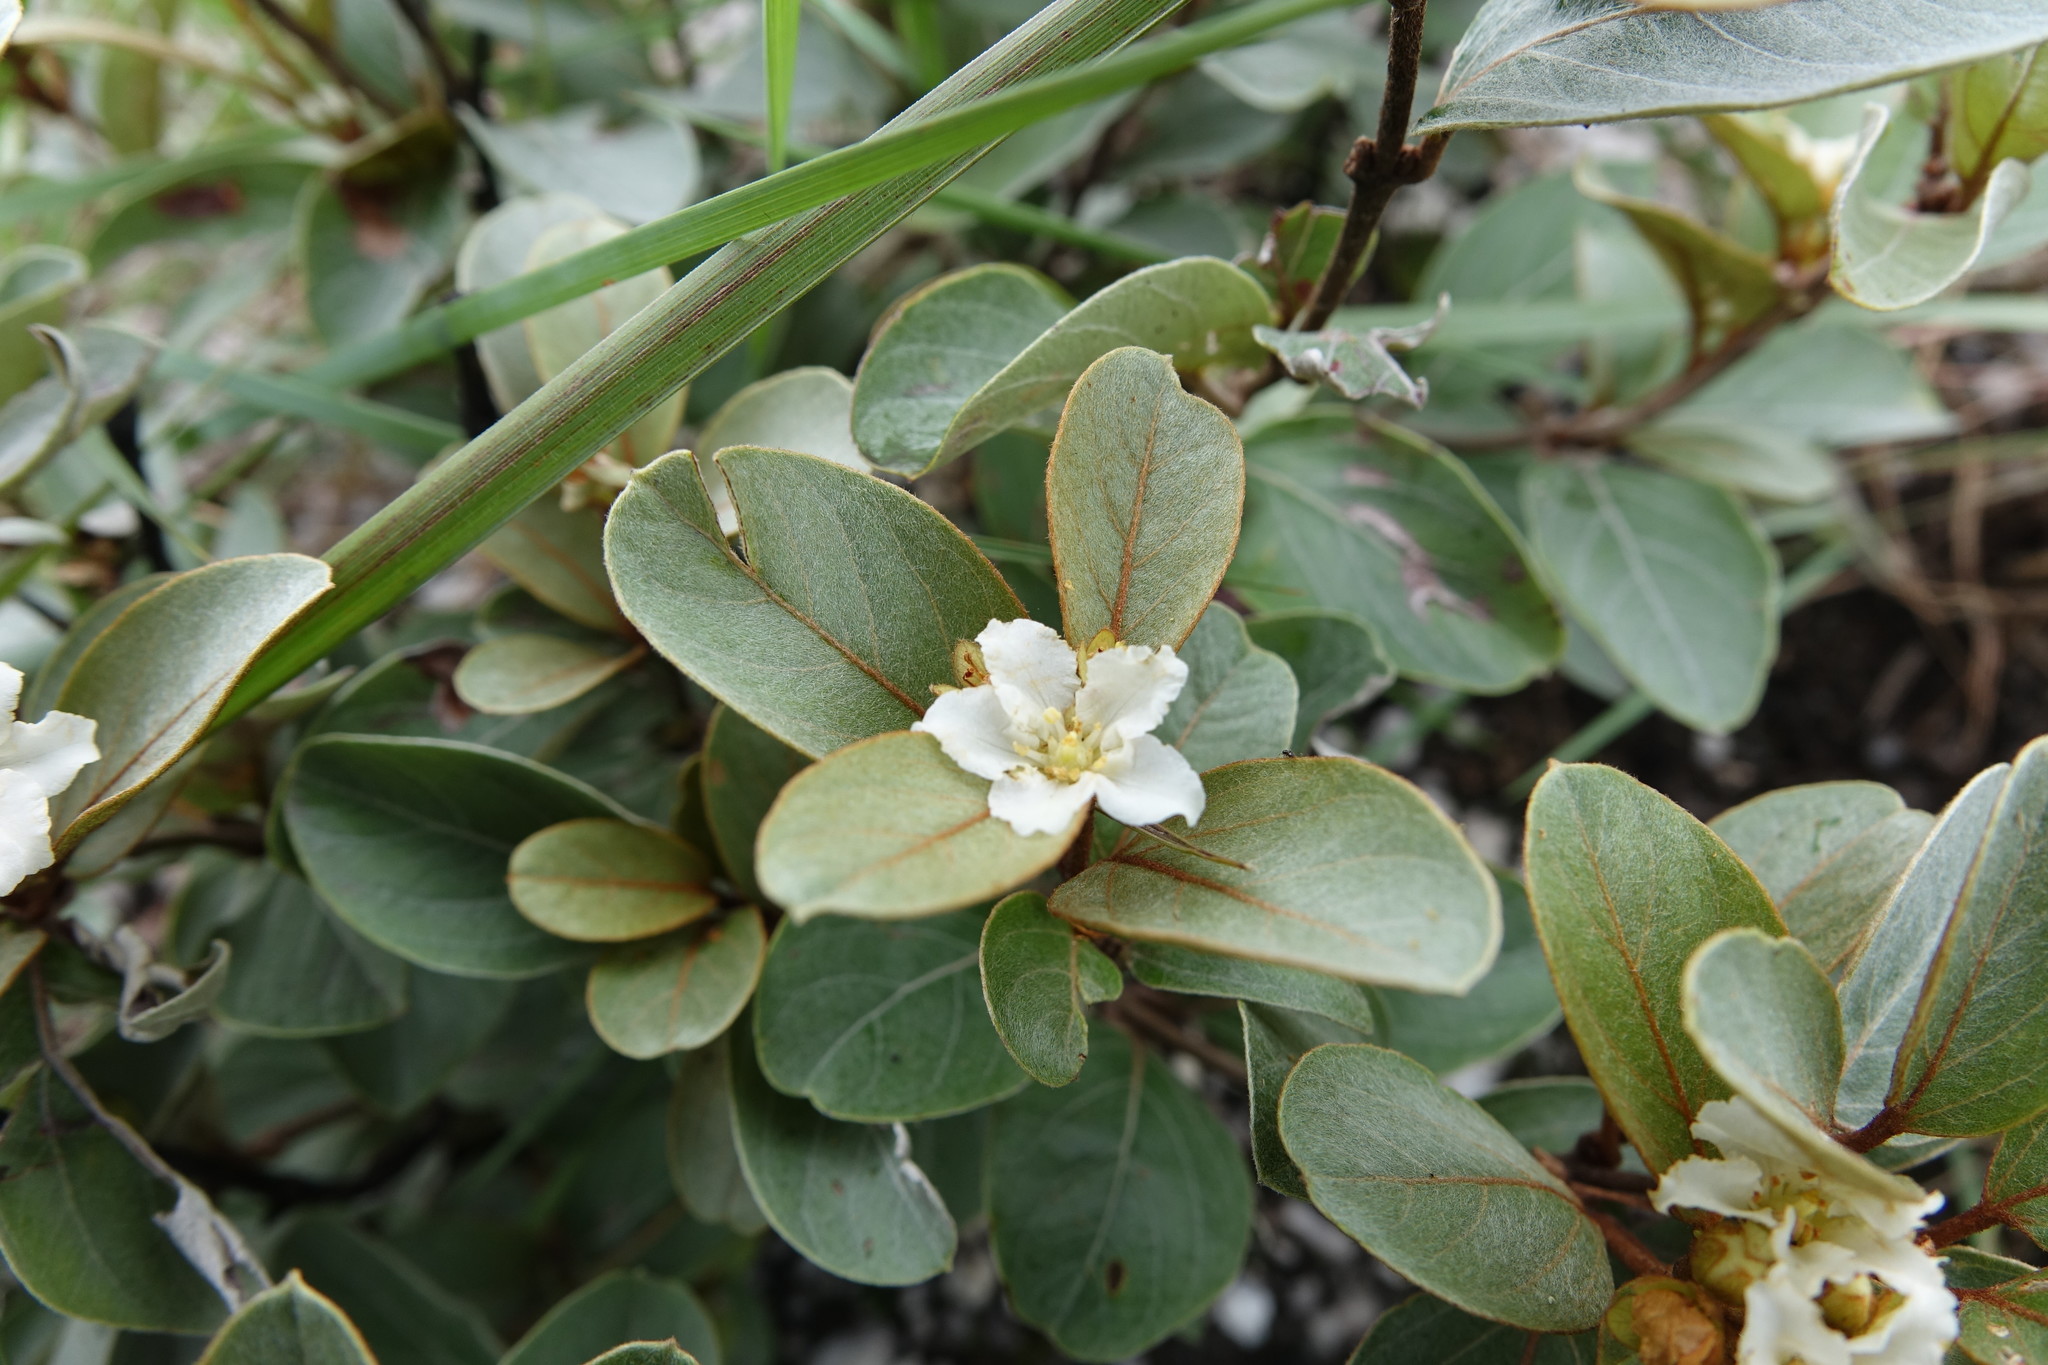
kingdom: Plantae
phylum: Tracheophyta
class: Magnoliopsida
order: Malpighiales
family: Malpighiaceae
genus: Philgamia
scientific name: Philgamia hibbertioides
